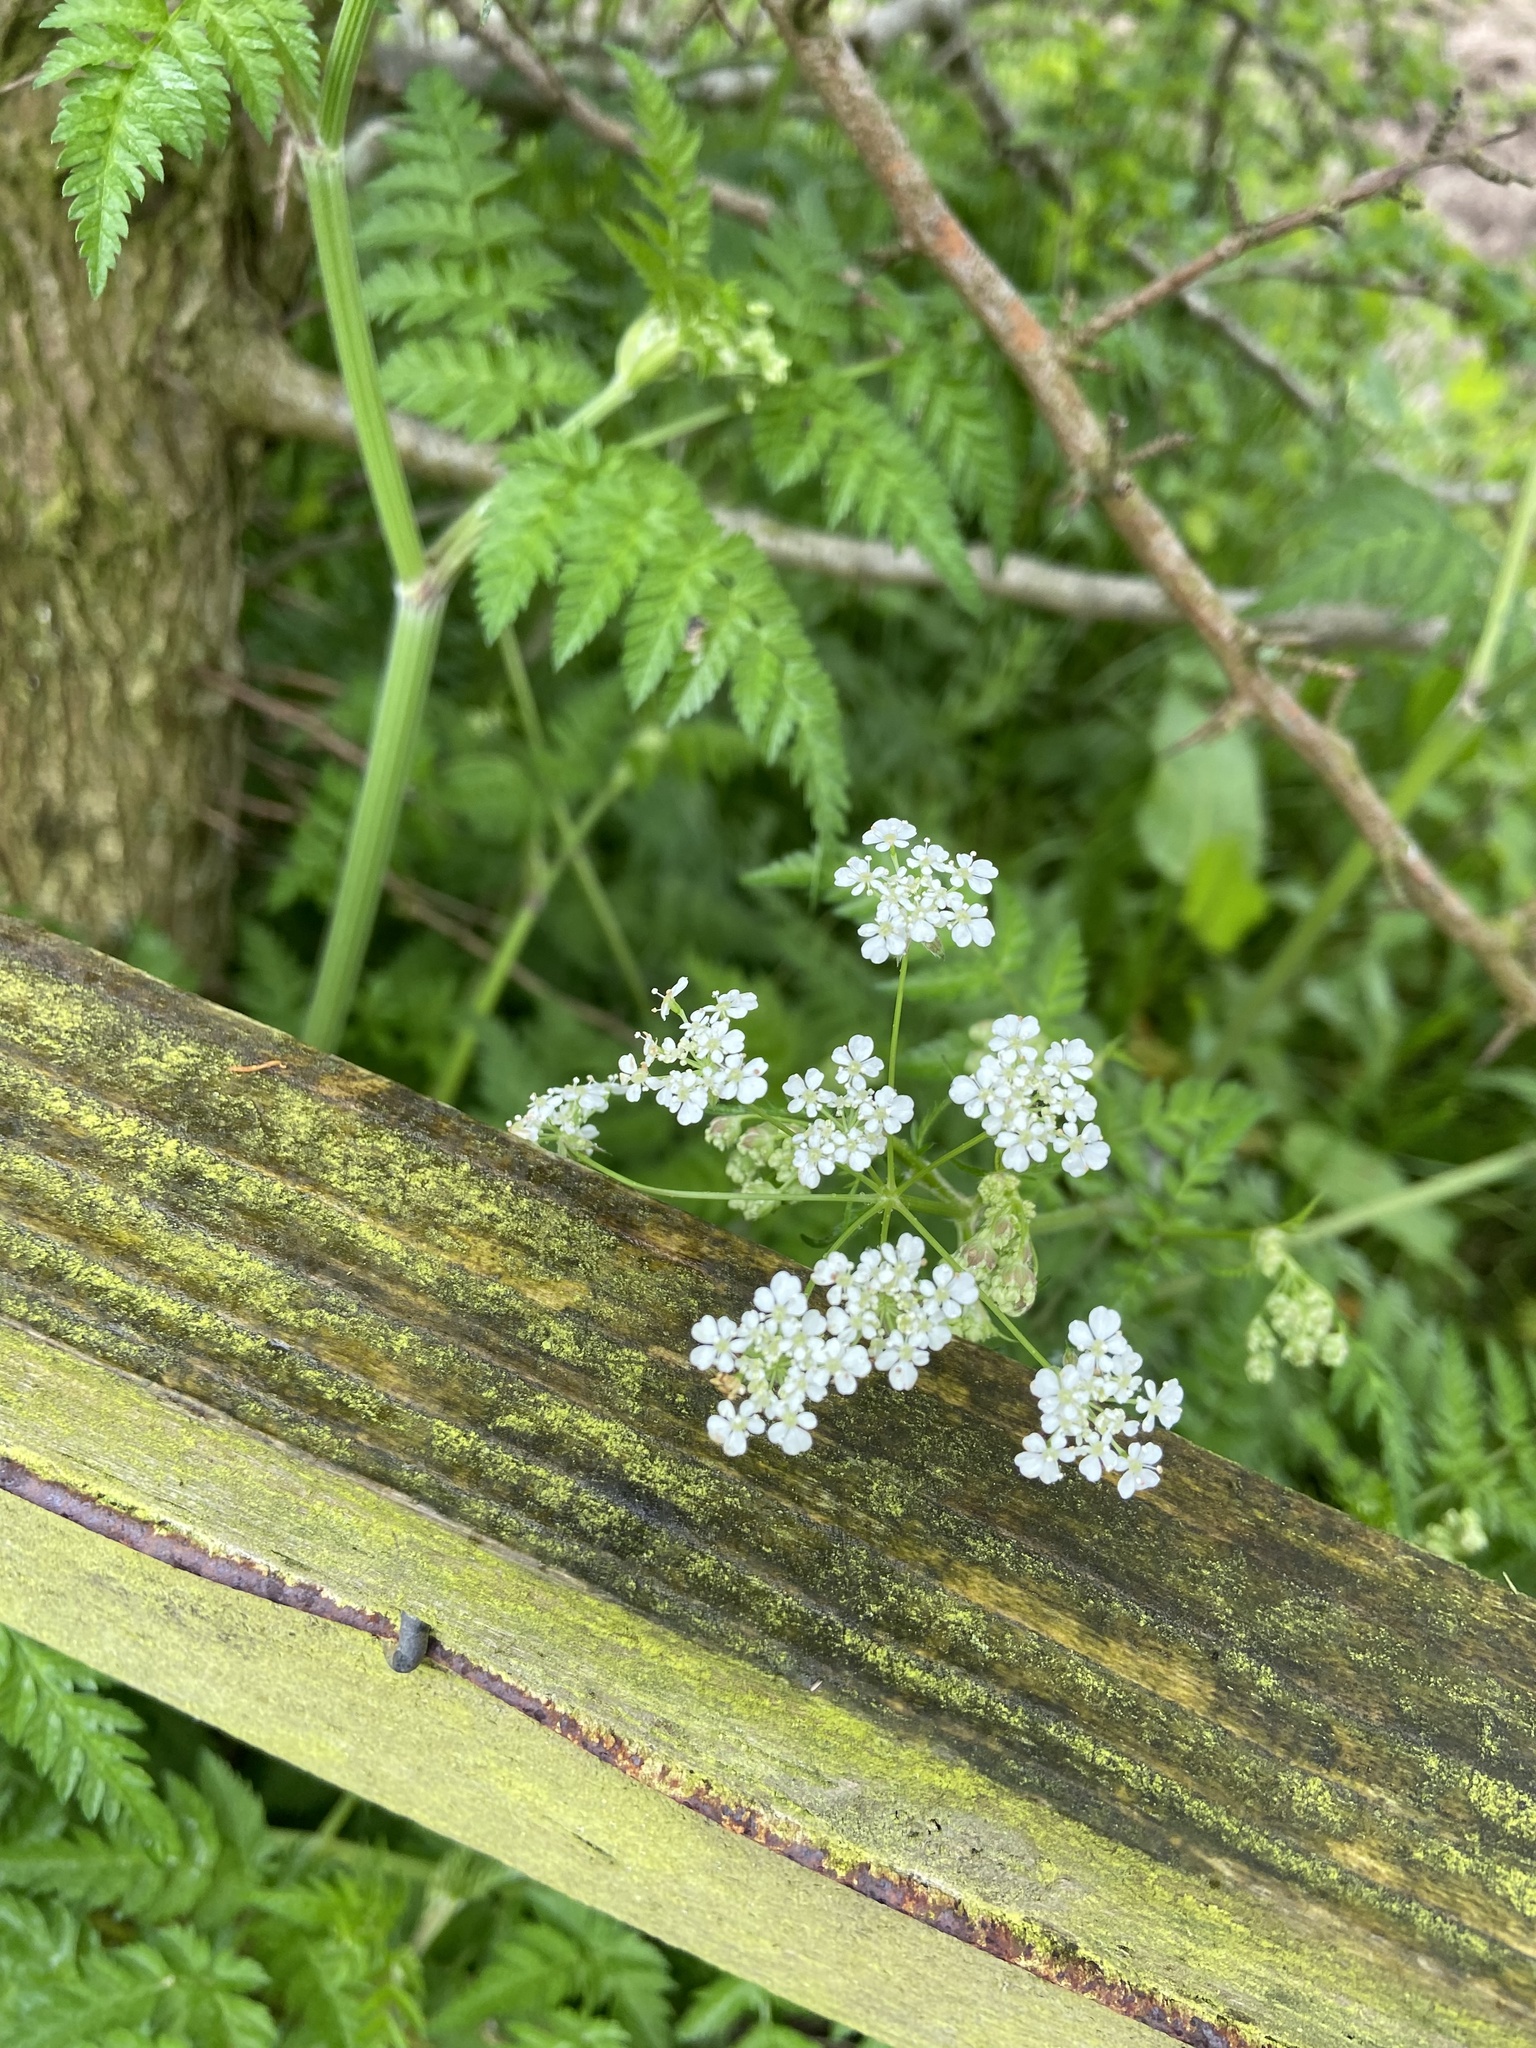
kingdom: Plantae
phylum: Tracheophyta
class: Magnoliopsida
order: Apiales
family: Apiaceae
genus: Anthriscus
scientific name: Anthriscus sylvestris
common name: Cow parsley
